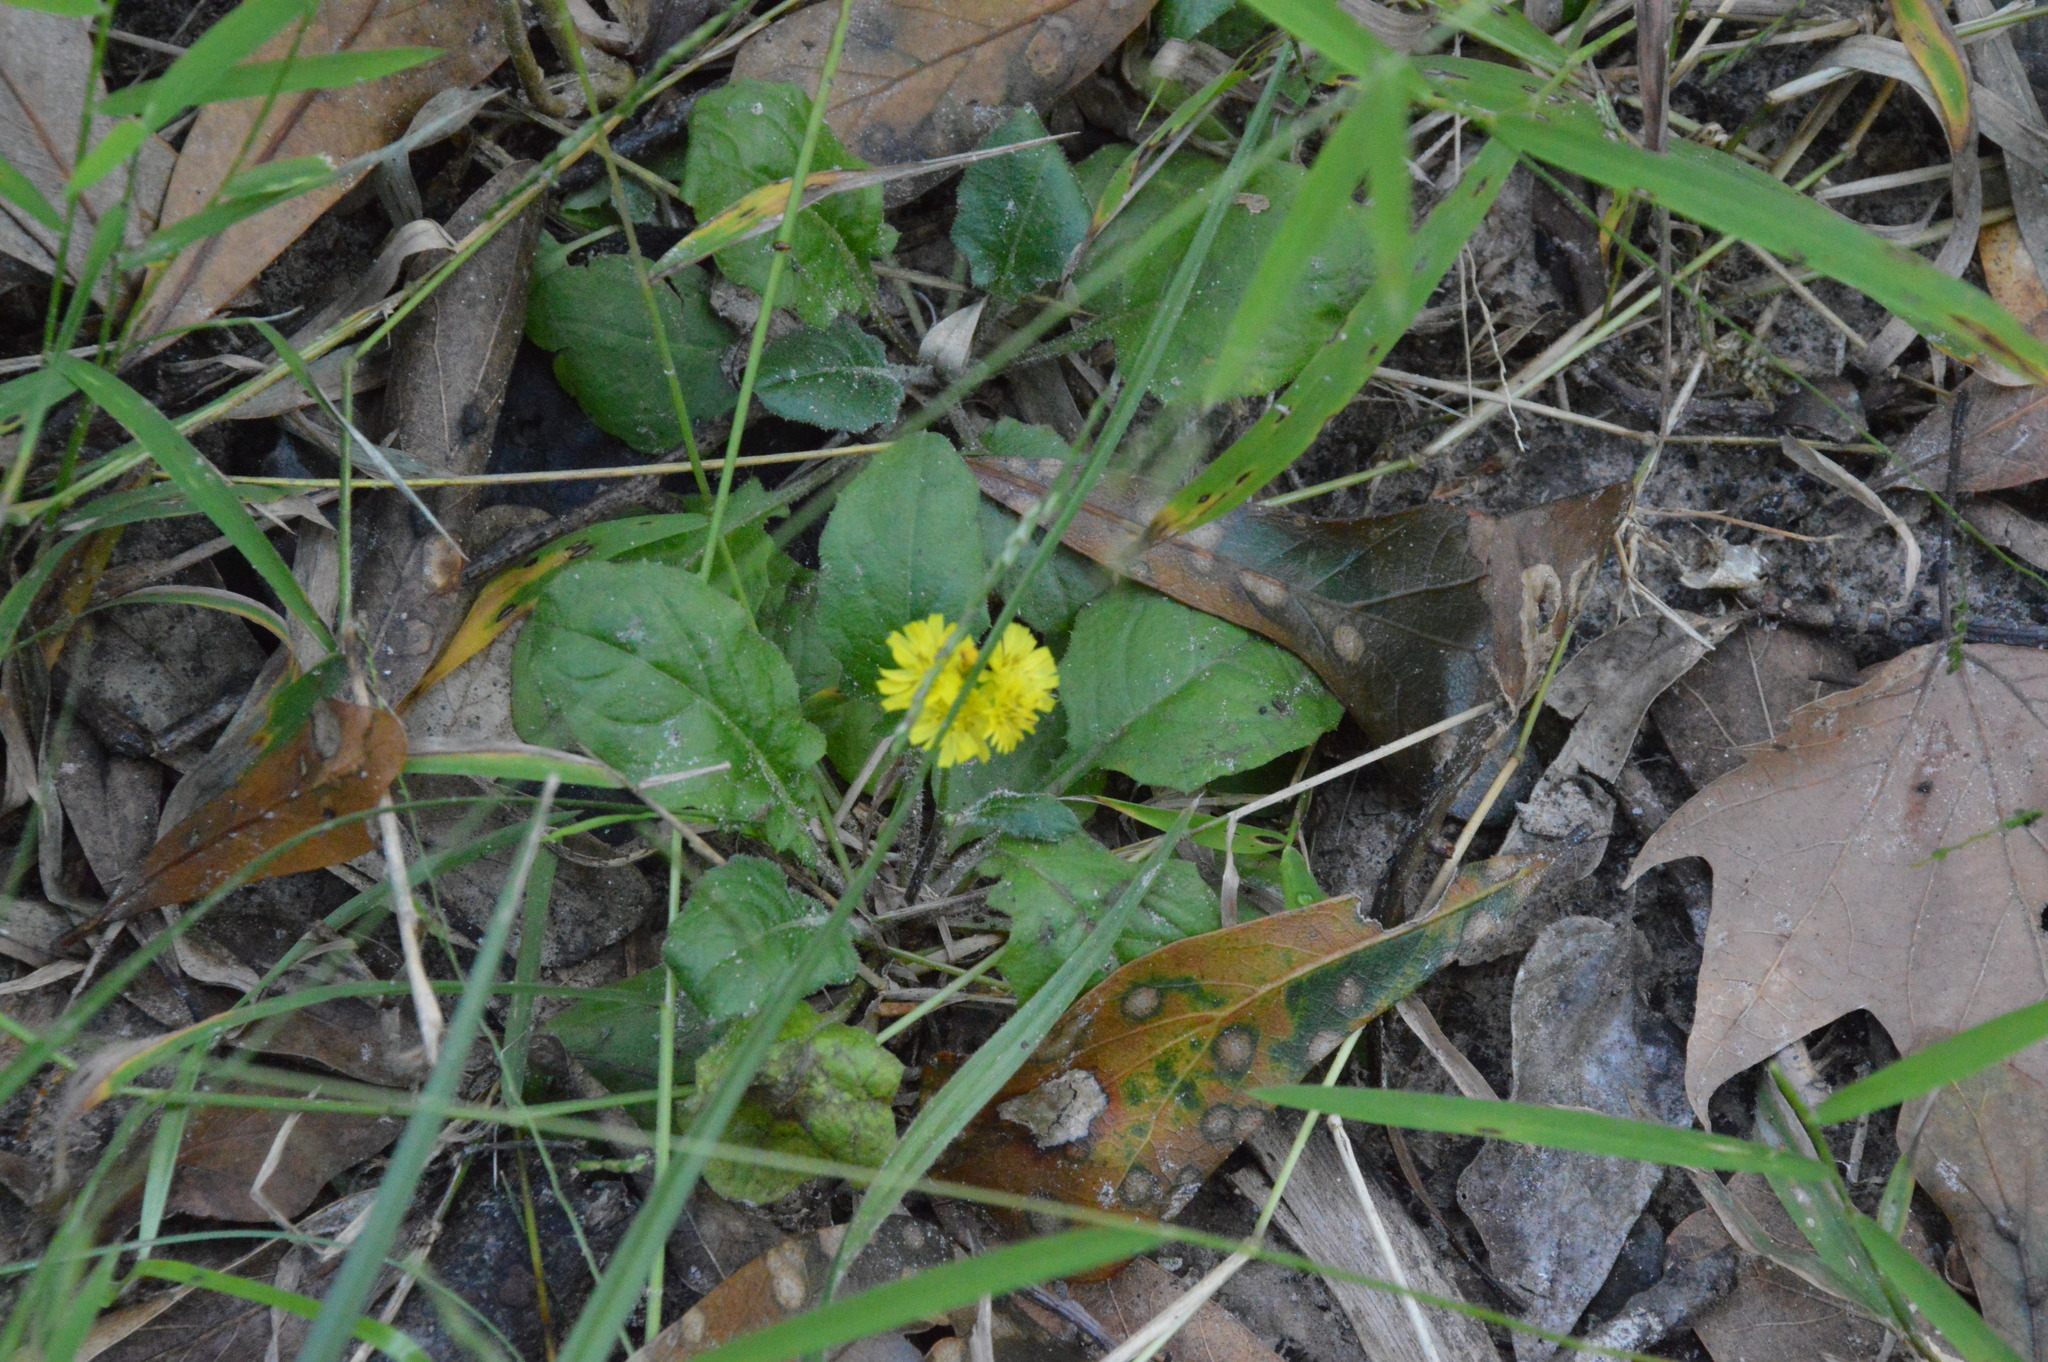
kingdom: Plantae
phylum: Tracheophyta
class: Magnoliopsida
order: Asterales
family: Asteraceae
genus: Youngia
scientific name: Youngia japonica
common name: Oriental false hawksbeard
